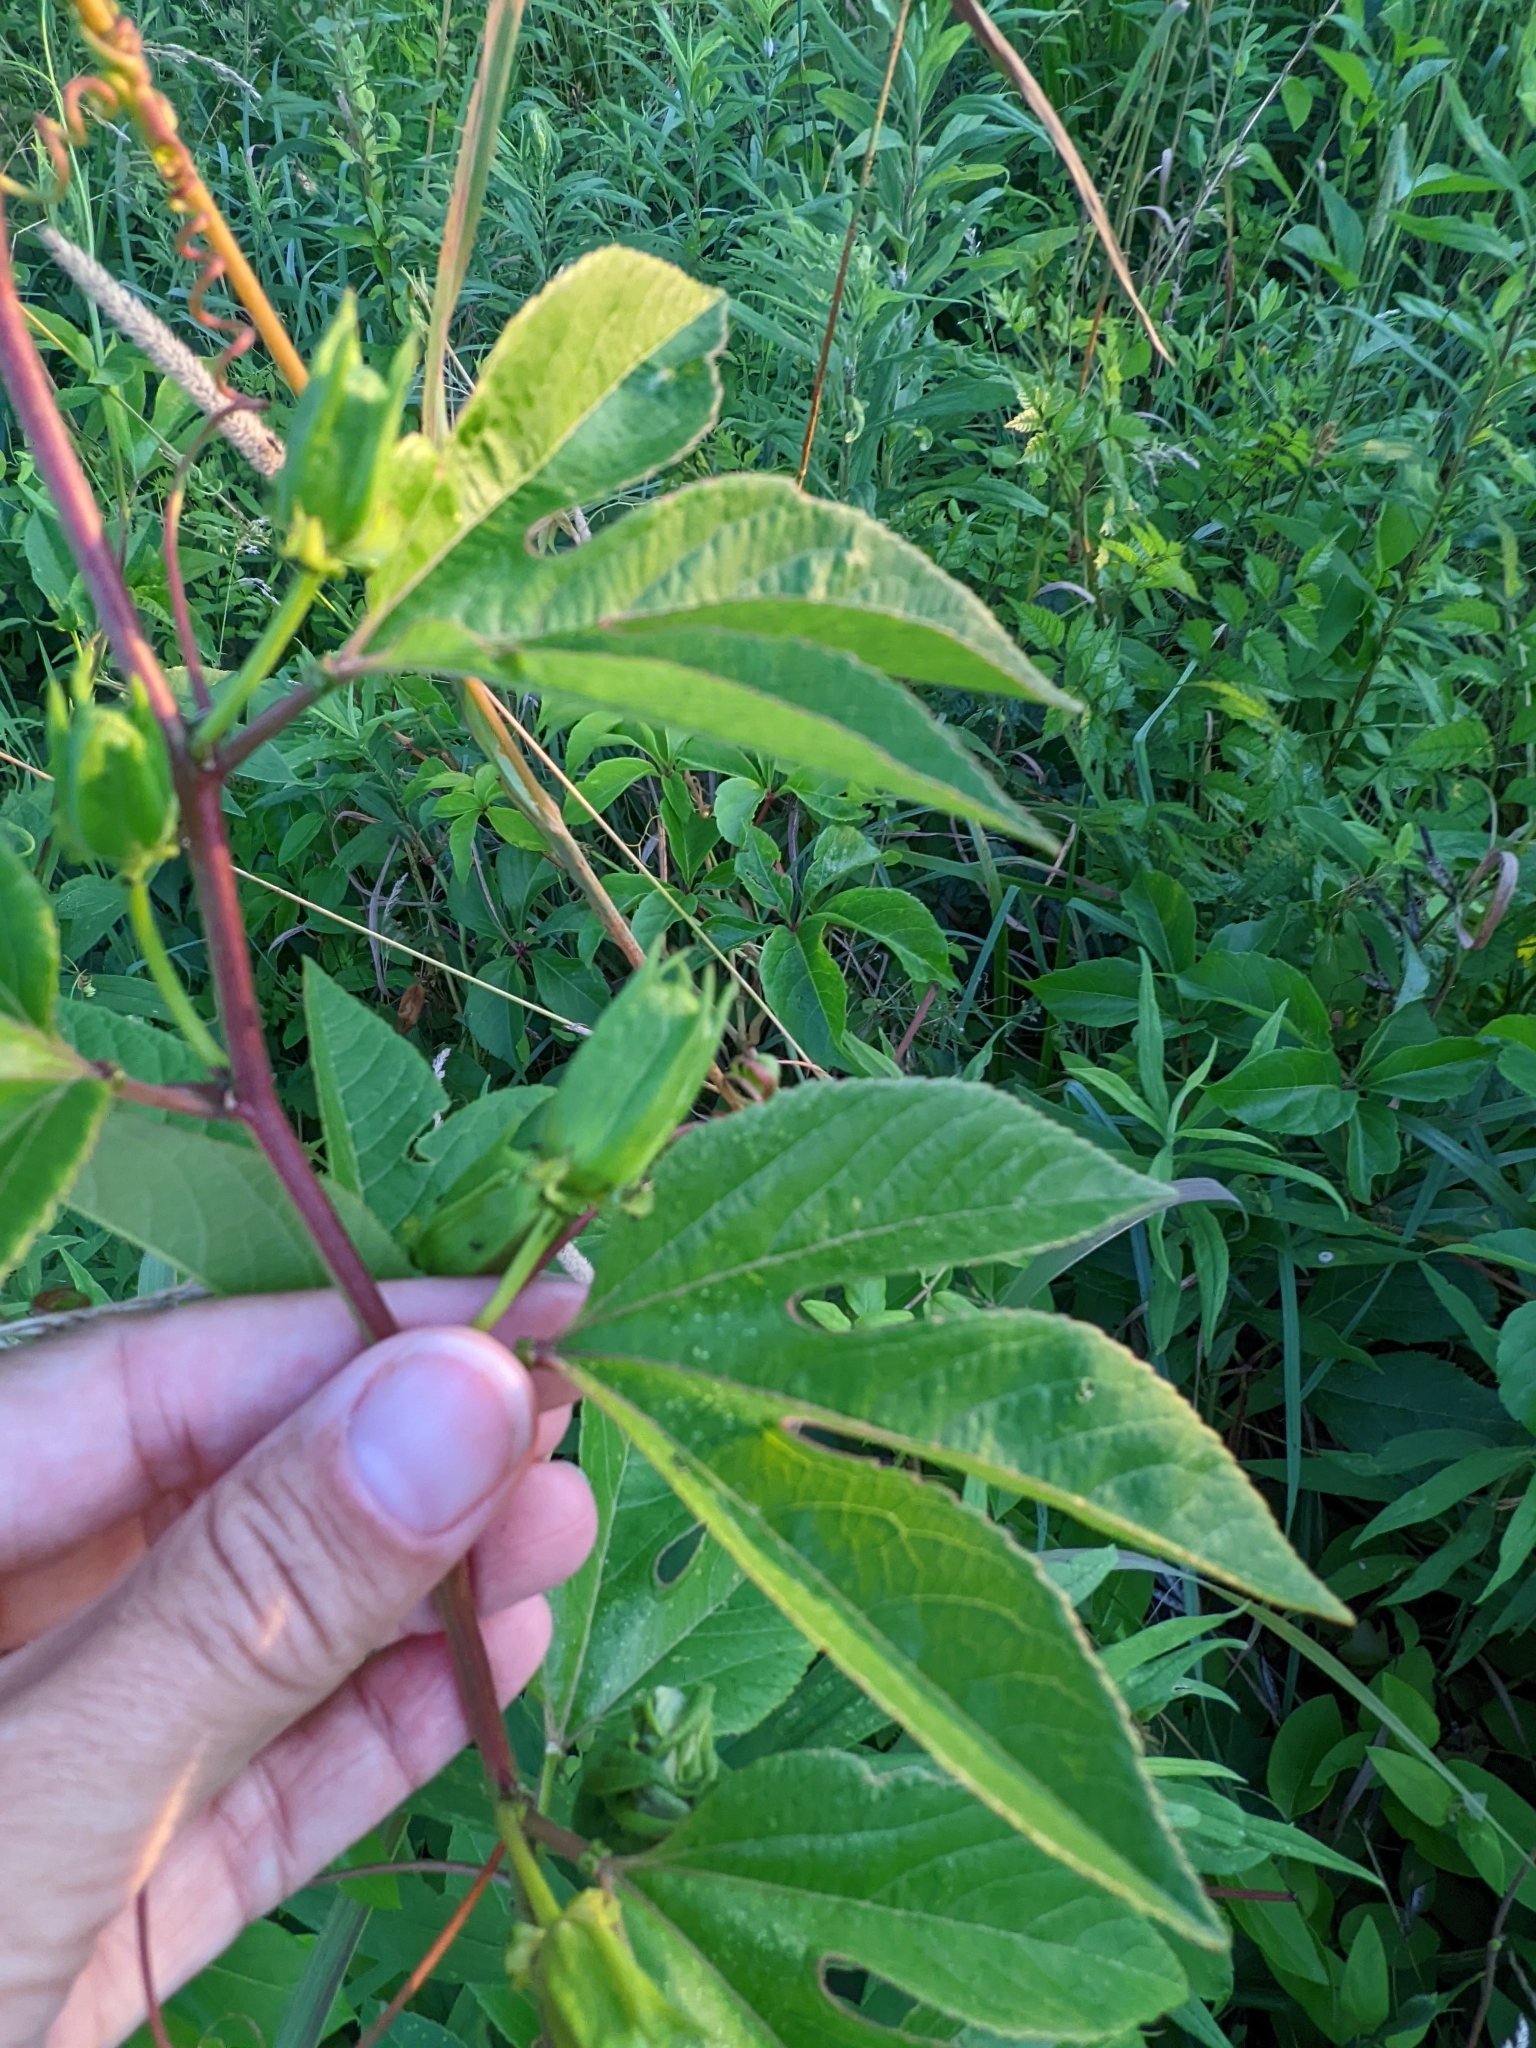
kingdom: Plantae
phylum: Tracheophyta
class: Magnoliopsida
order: Malpighiales
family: Passifloraceae
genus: Passiflora
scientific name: Passiflora incarnata
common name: Apricot-vine
